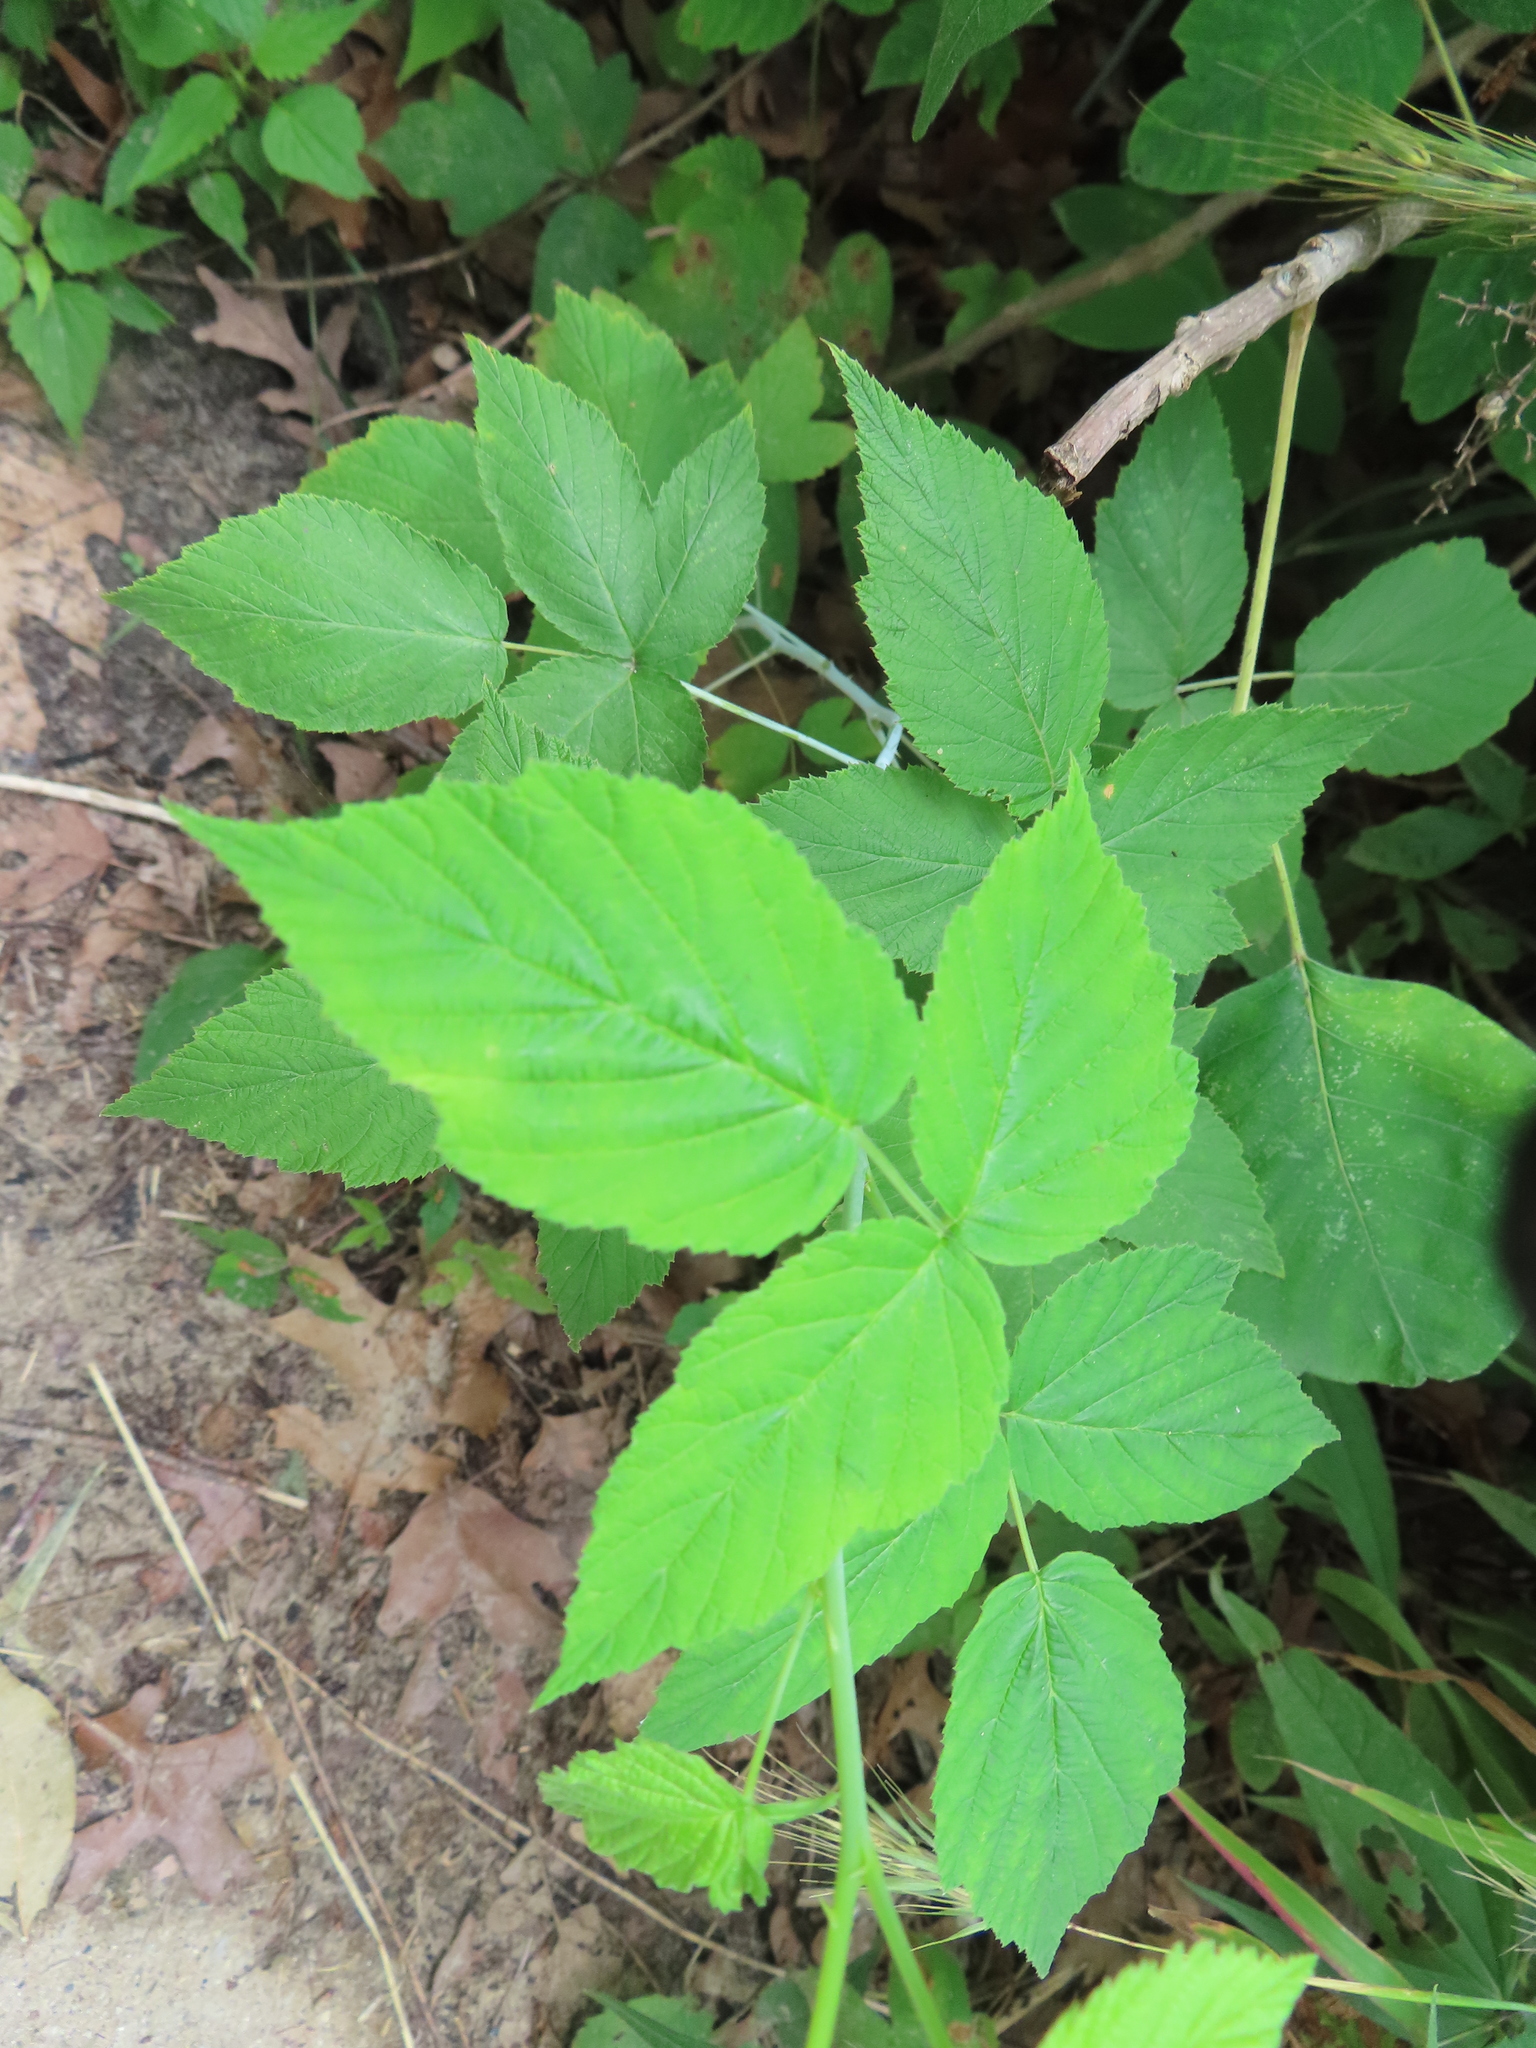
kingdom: Plantae
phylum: Tracheophyta
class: Magnoliopsida
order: Rosales
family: Rosaceae
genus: Rubus
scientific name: Rubus occidentalis
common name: Black raspberry
